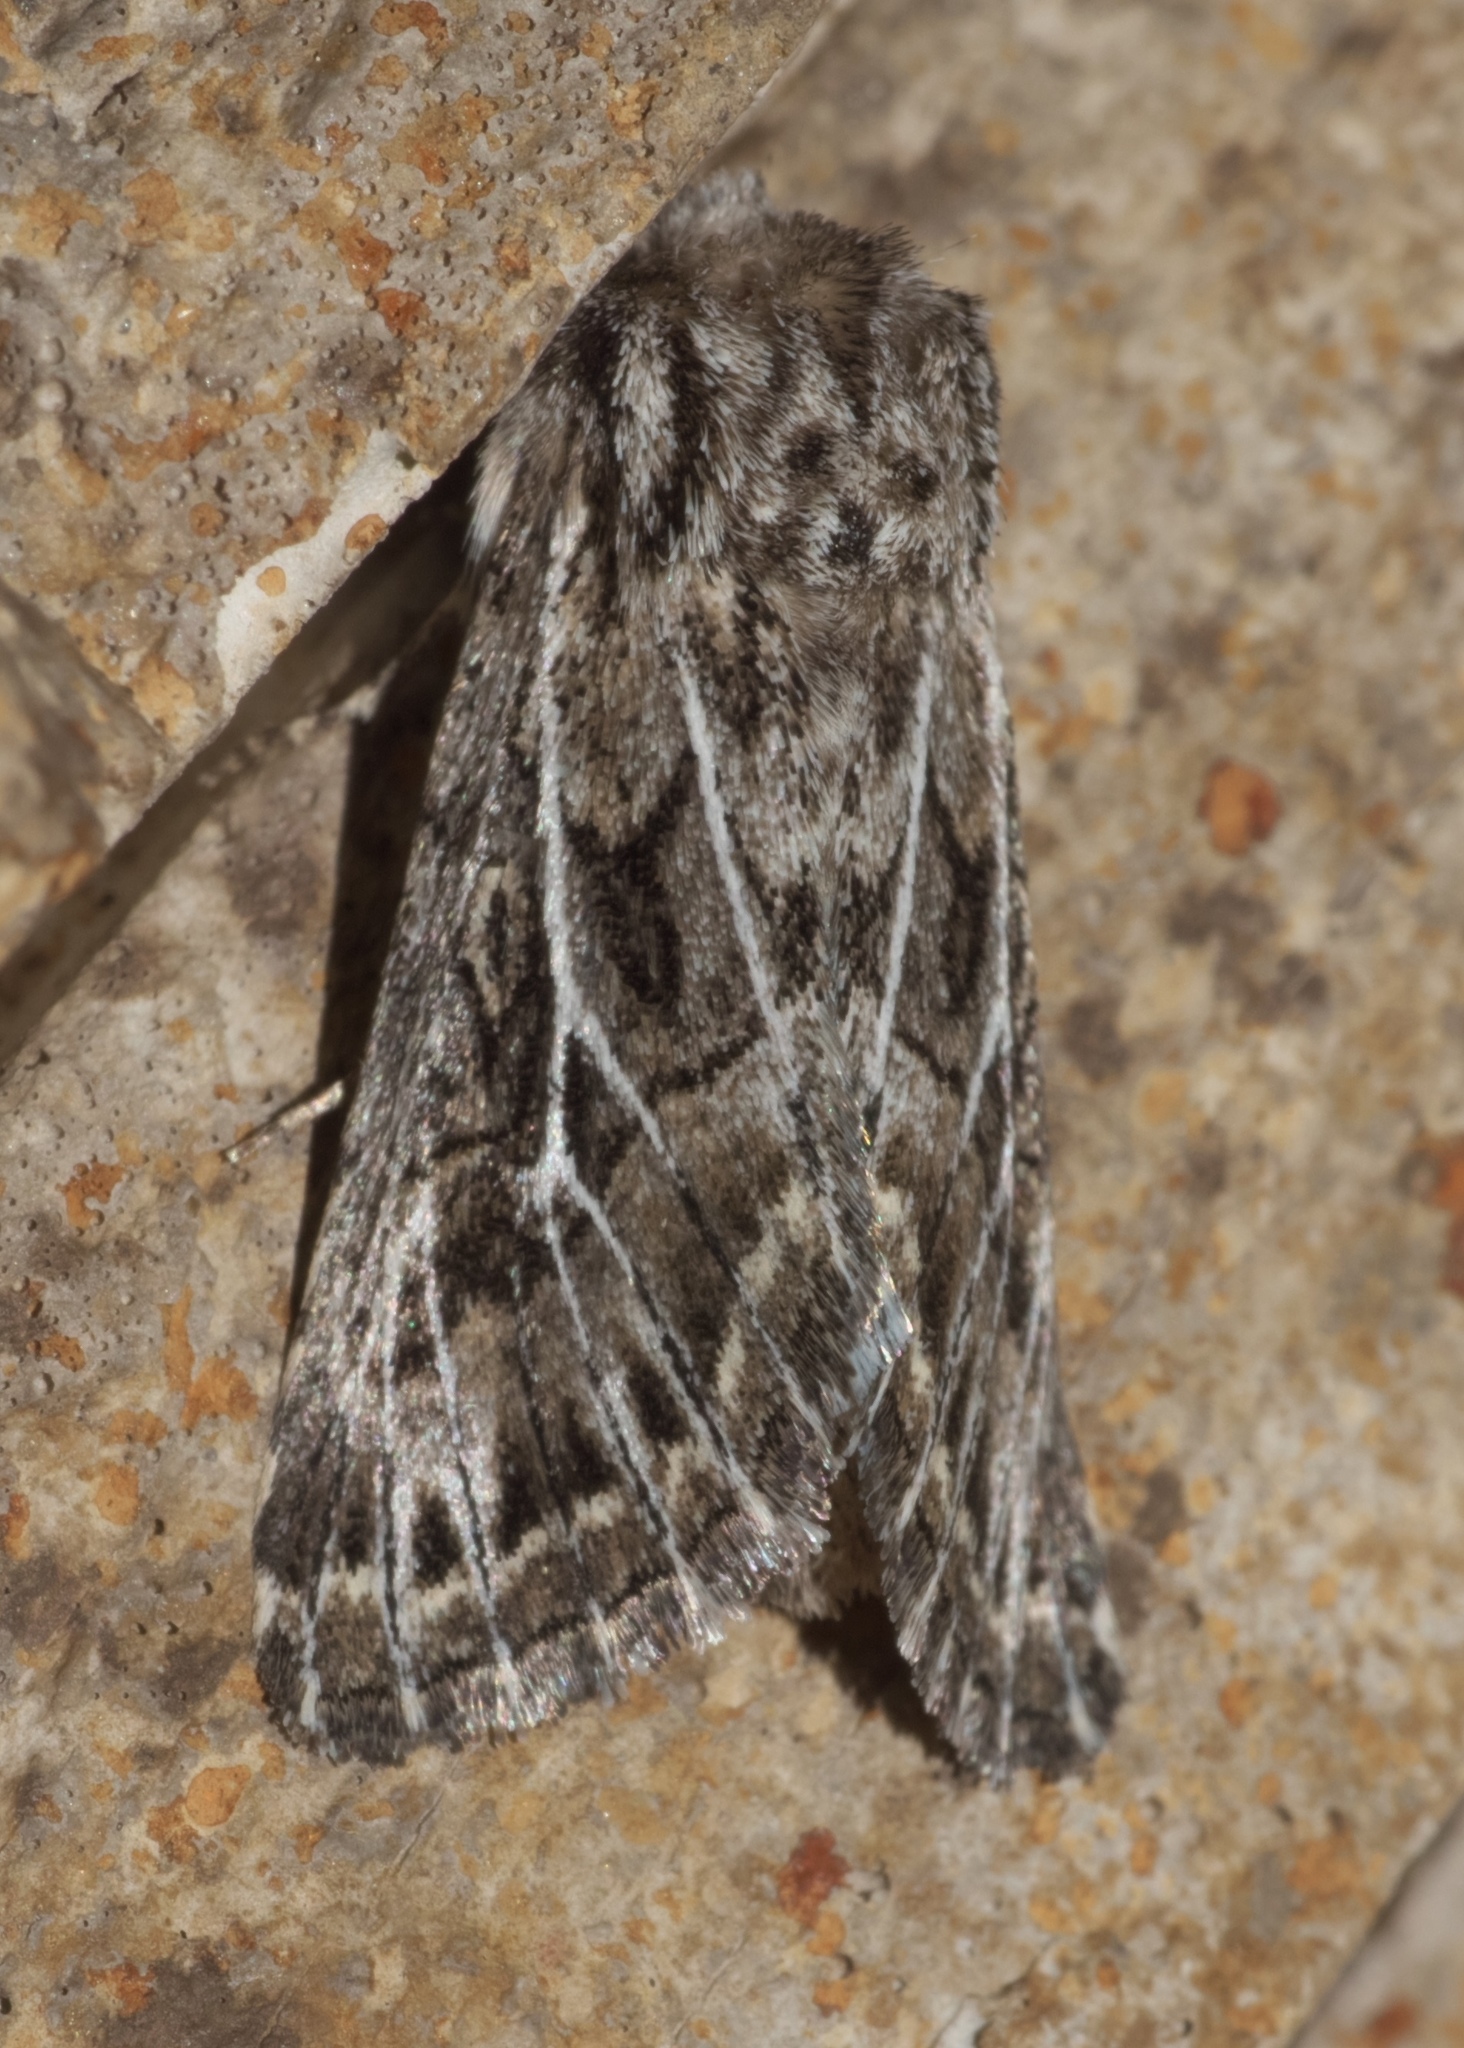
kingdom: Animalia
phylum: Arthropoda
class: Insecta
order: Lepidoptera
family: Noctuidae
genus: Tholera
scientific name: Tholera americana
